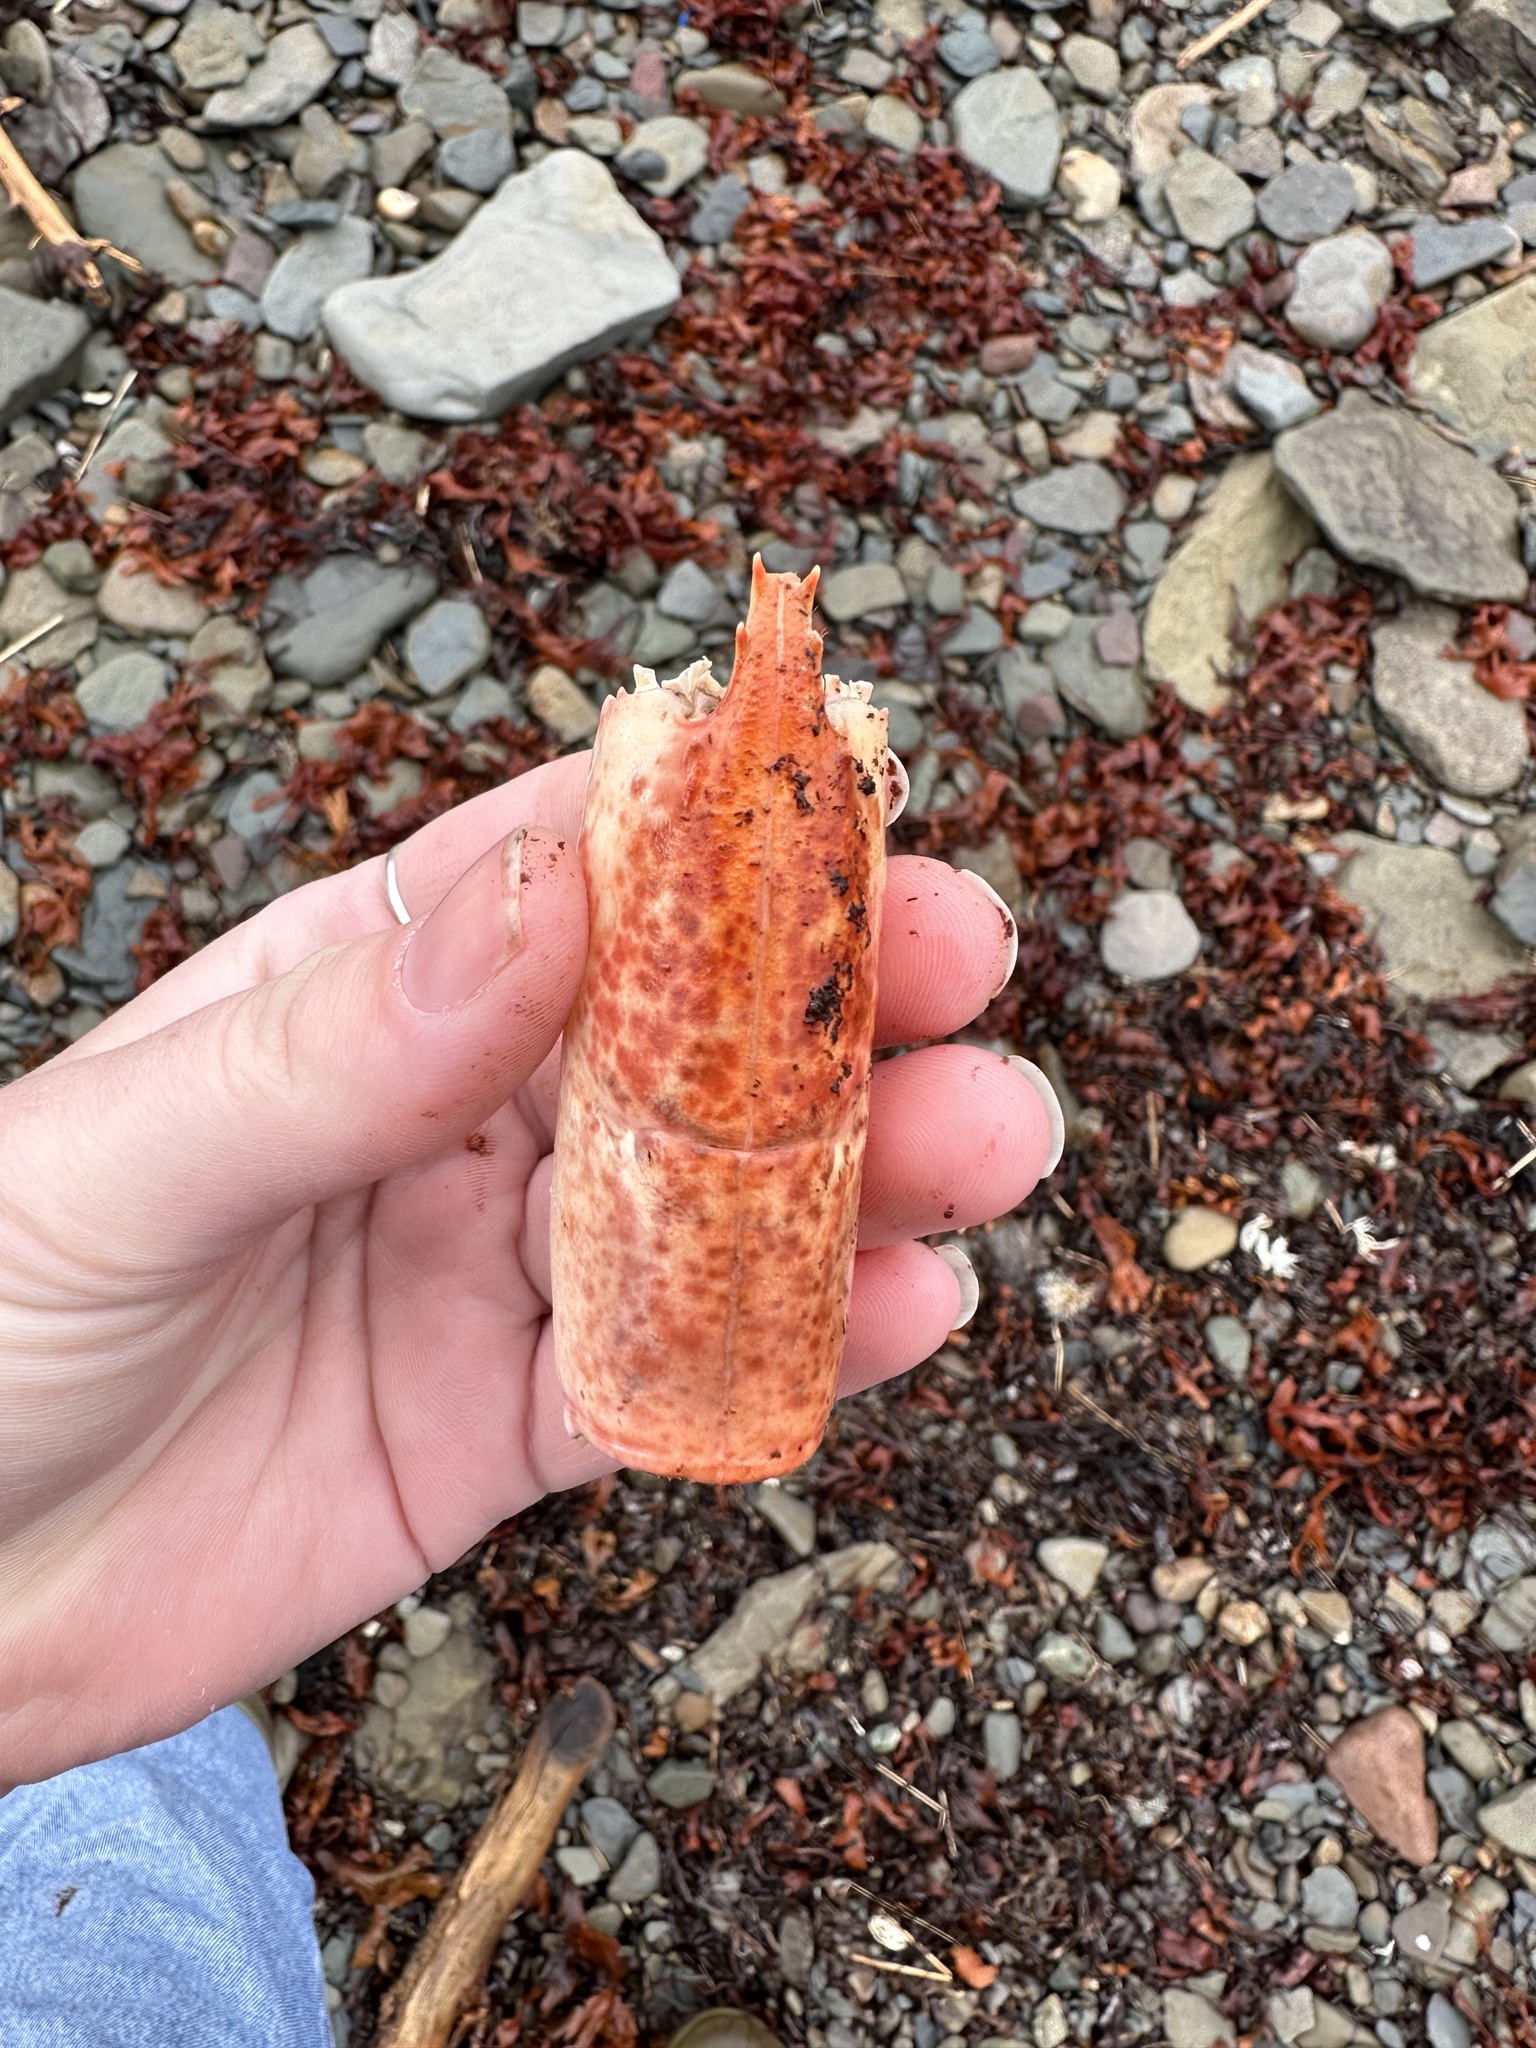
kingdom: Animalia
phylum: Arthropoda
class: Malacostraca
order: Decapoda
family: Nephropidae
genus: Homarus
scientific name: Homarus americanus
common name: American lobster
